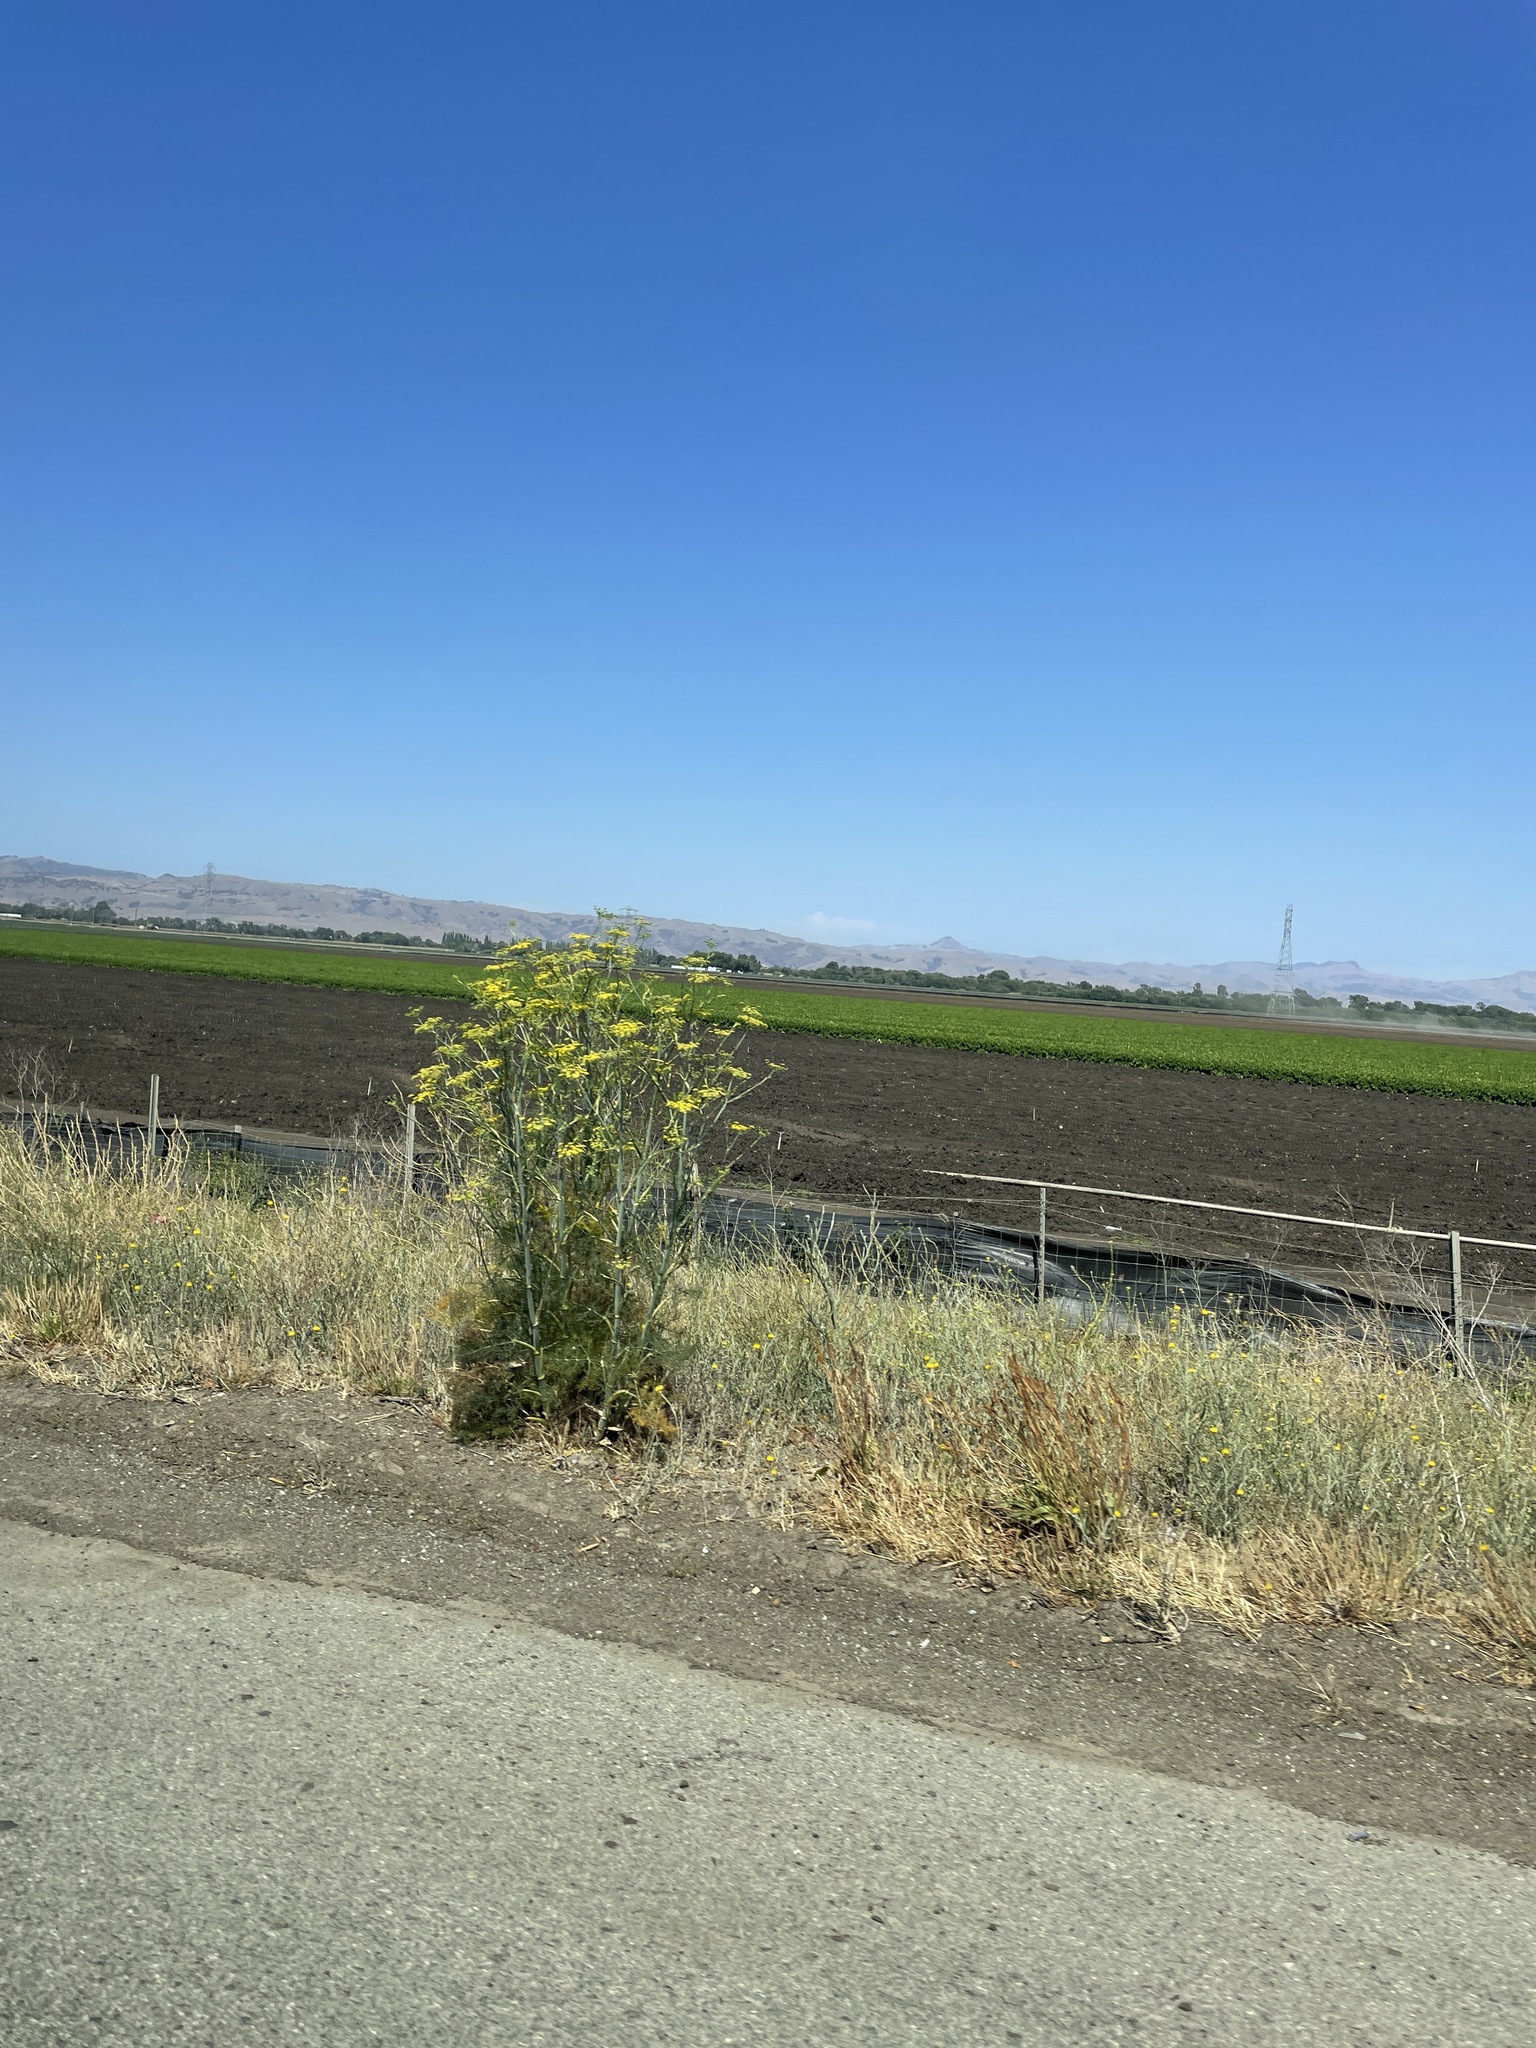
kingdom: Plantae
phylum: Tracheophyta
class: Magnoliopsida
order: Apiales
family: Apiaceae
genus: Foeniculum
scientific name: Foeniculum vulgare
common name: Fennel
